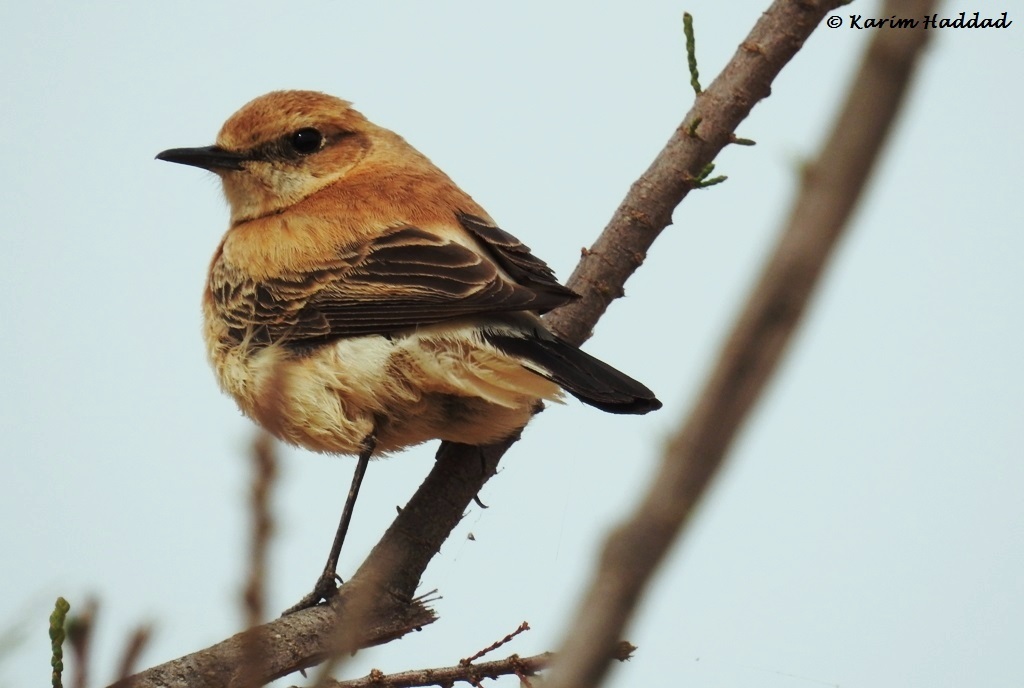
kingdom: Animalia
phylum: Chordata
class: Aves
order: Passeriformes
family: Muscicapidae
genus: Oenanthe
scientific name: Oenanthe hispanica
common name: Black-eared wheatear
